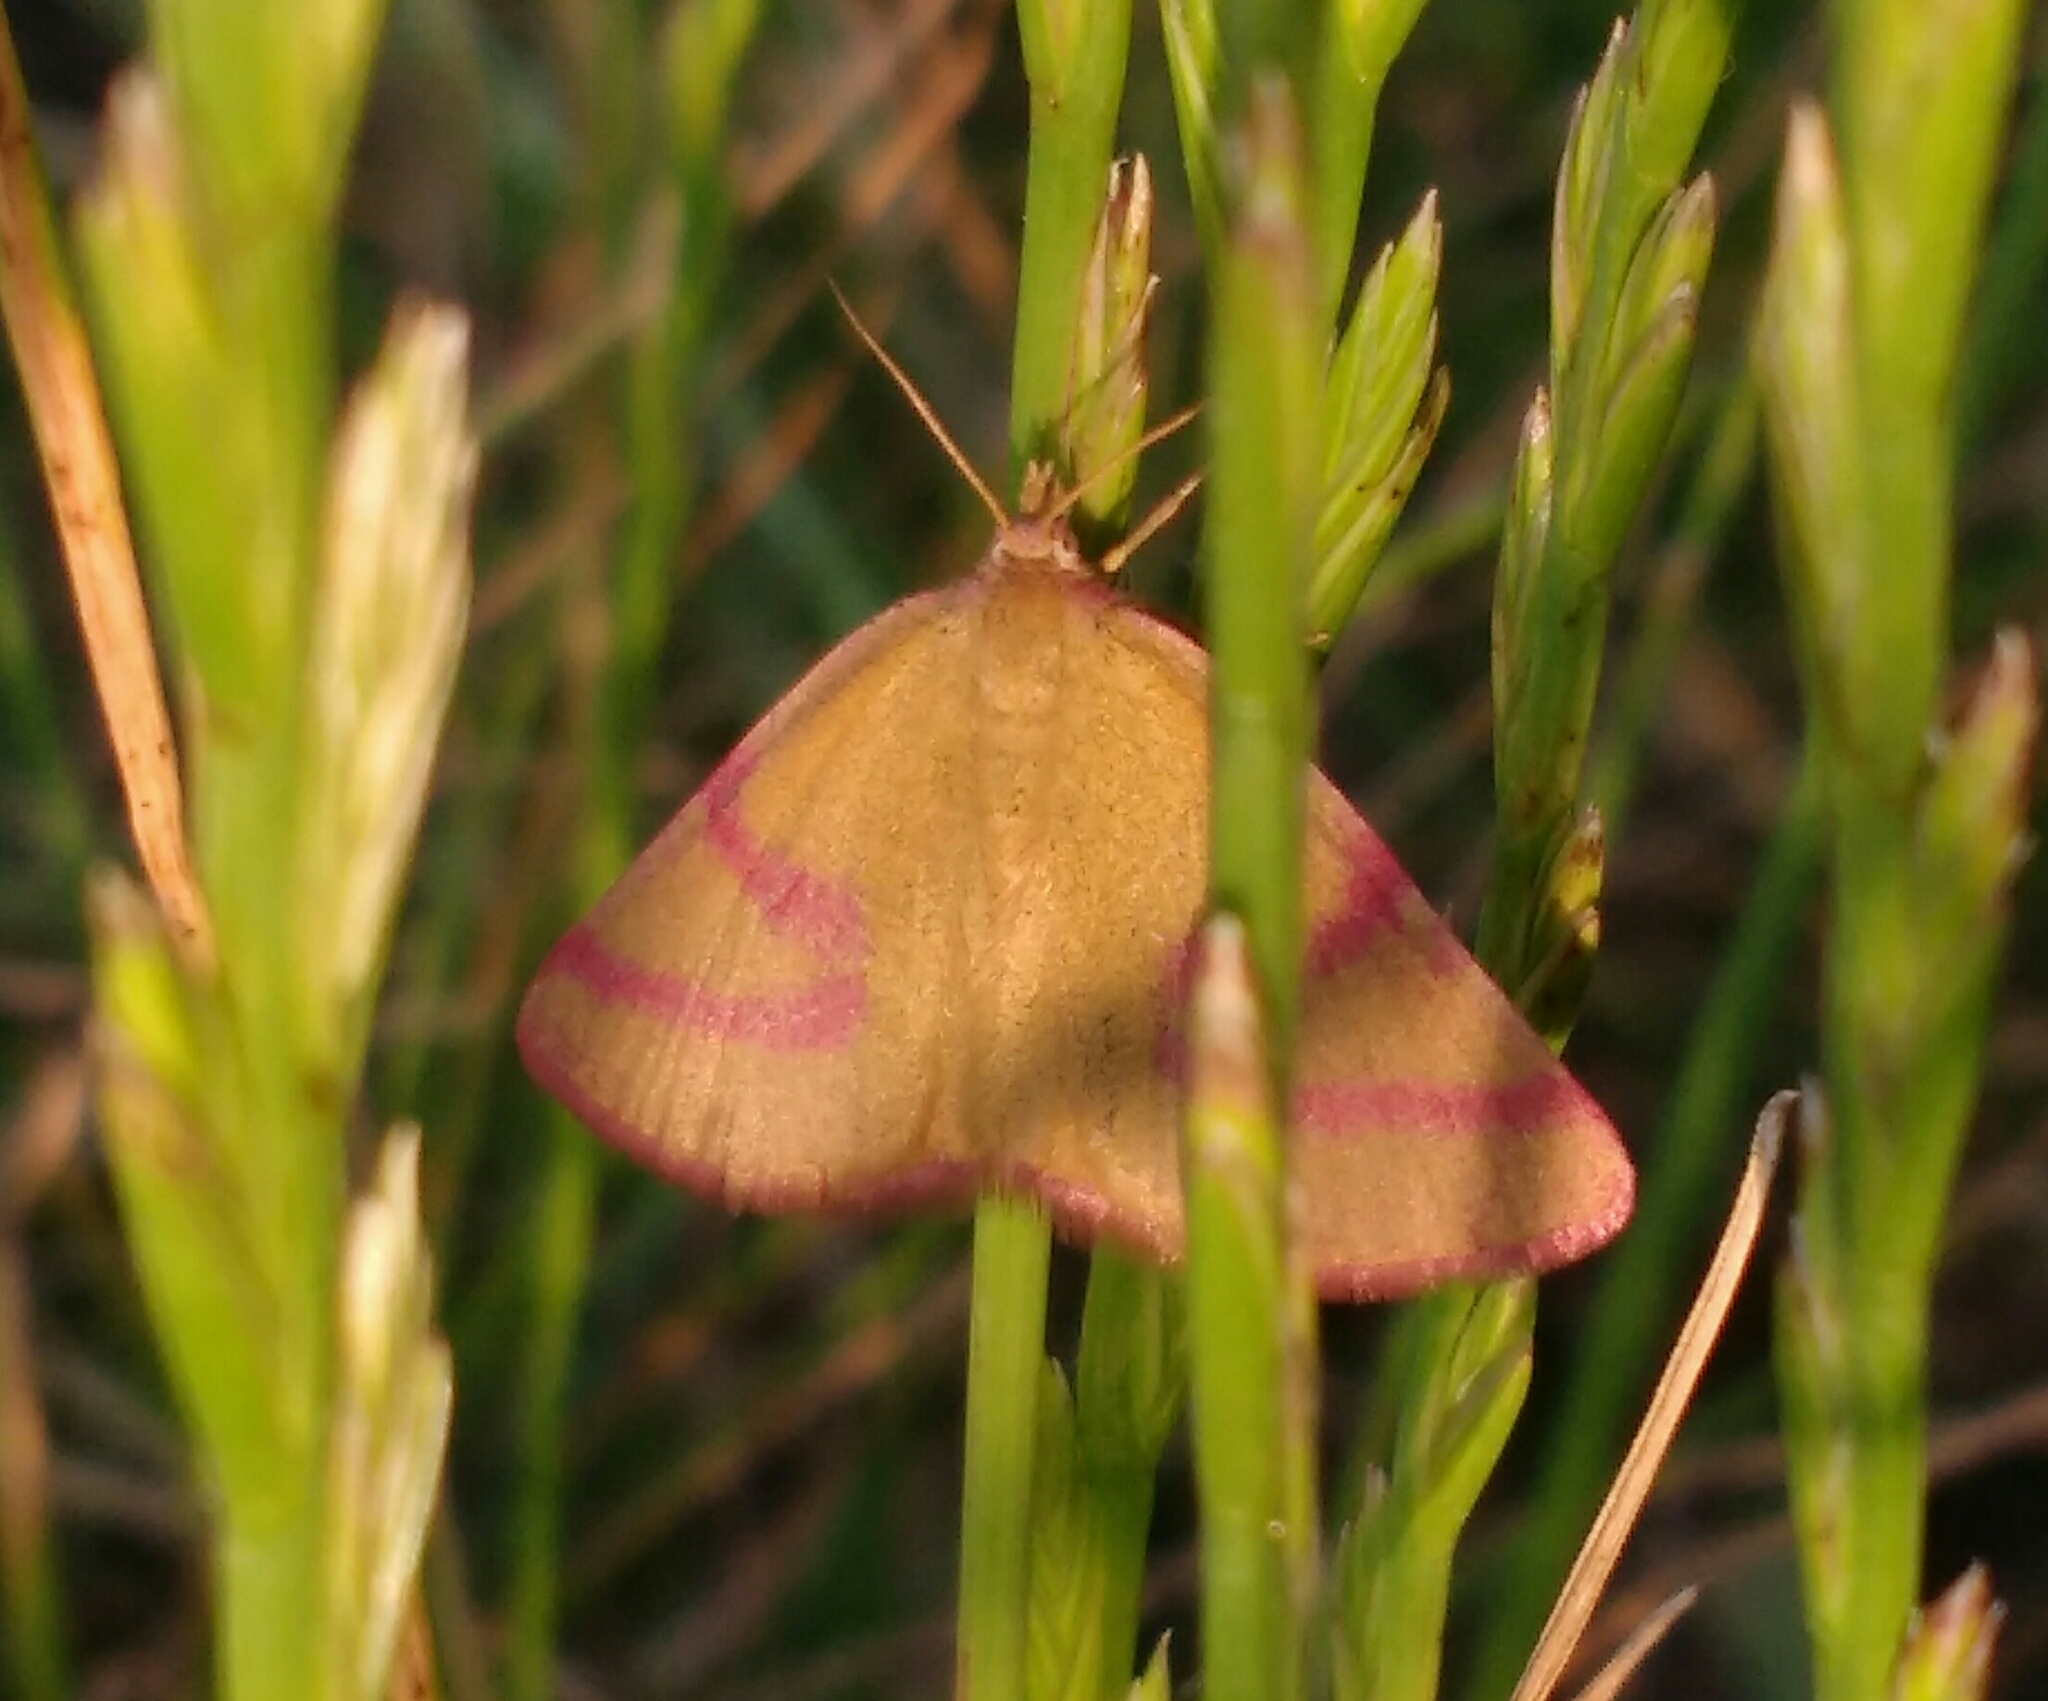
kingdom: Animalia
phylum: Arthropoda
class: Insecta
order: Lepidoptera
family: Geometridae
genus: Lythria
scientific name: Lythria purpuraria
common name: Purple-barred yellow
